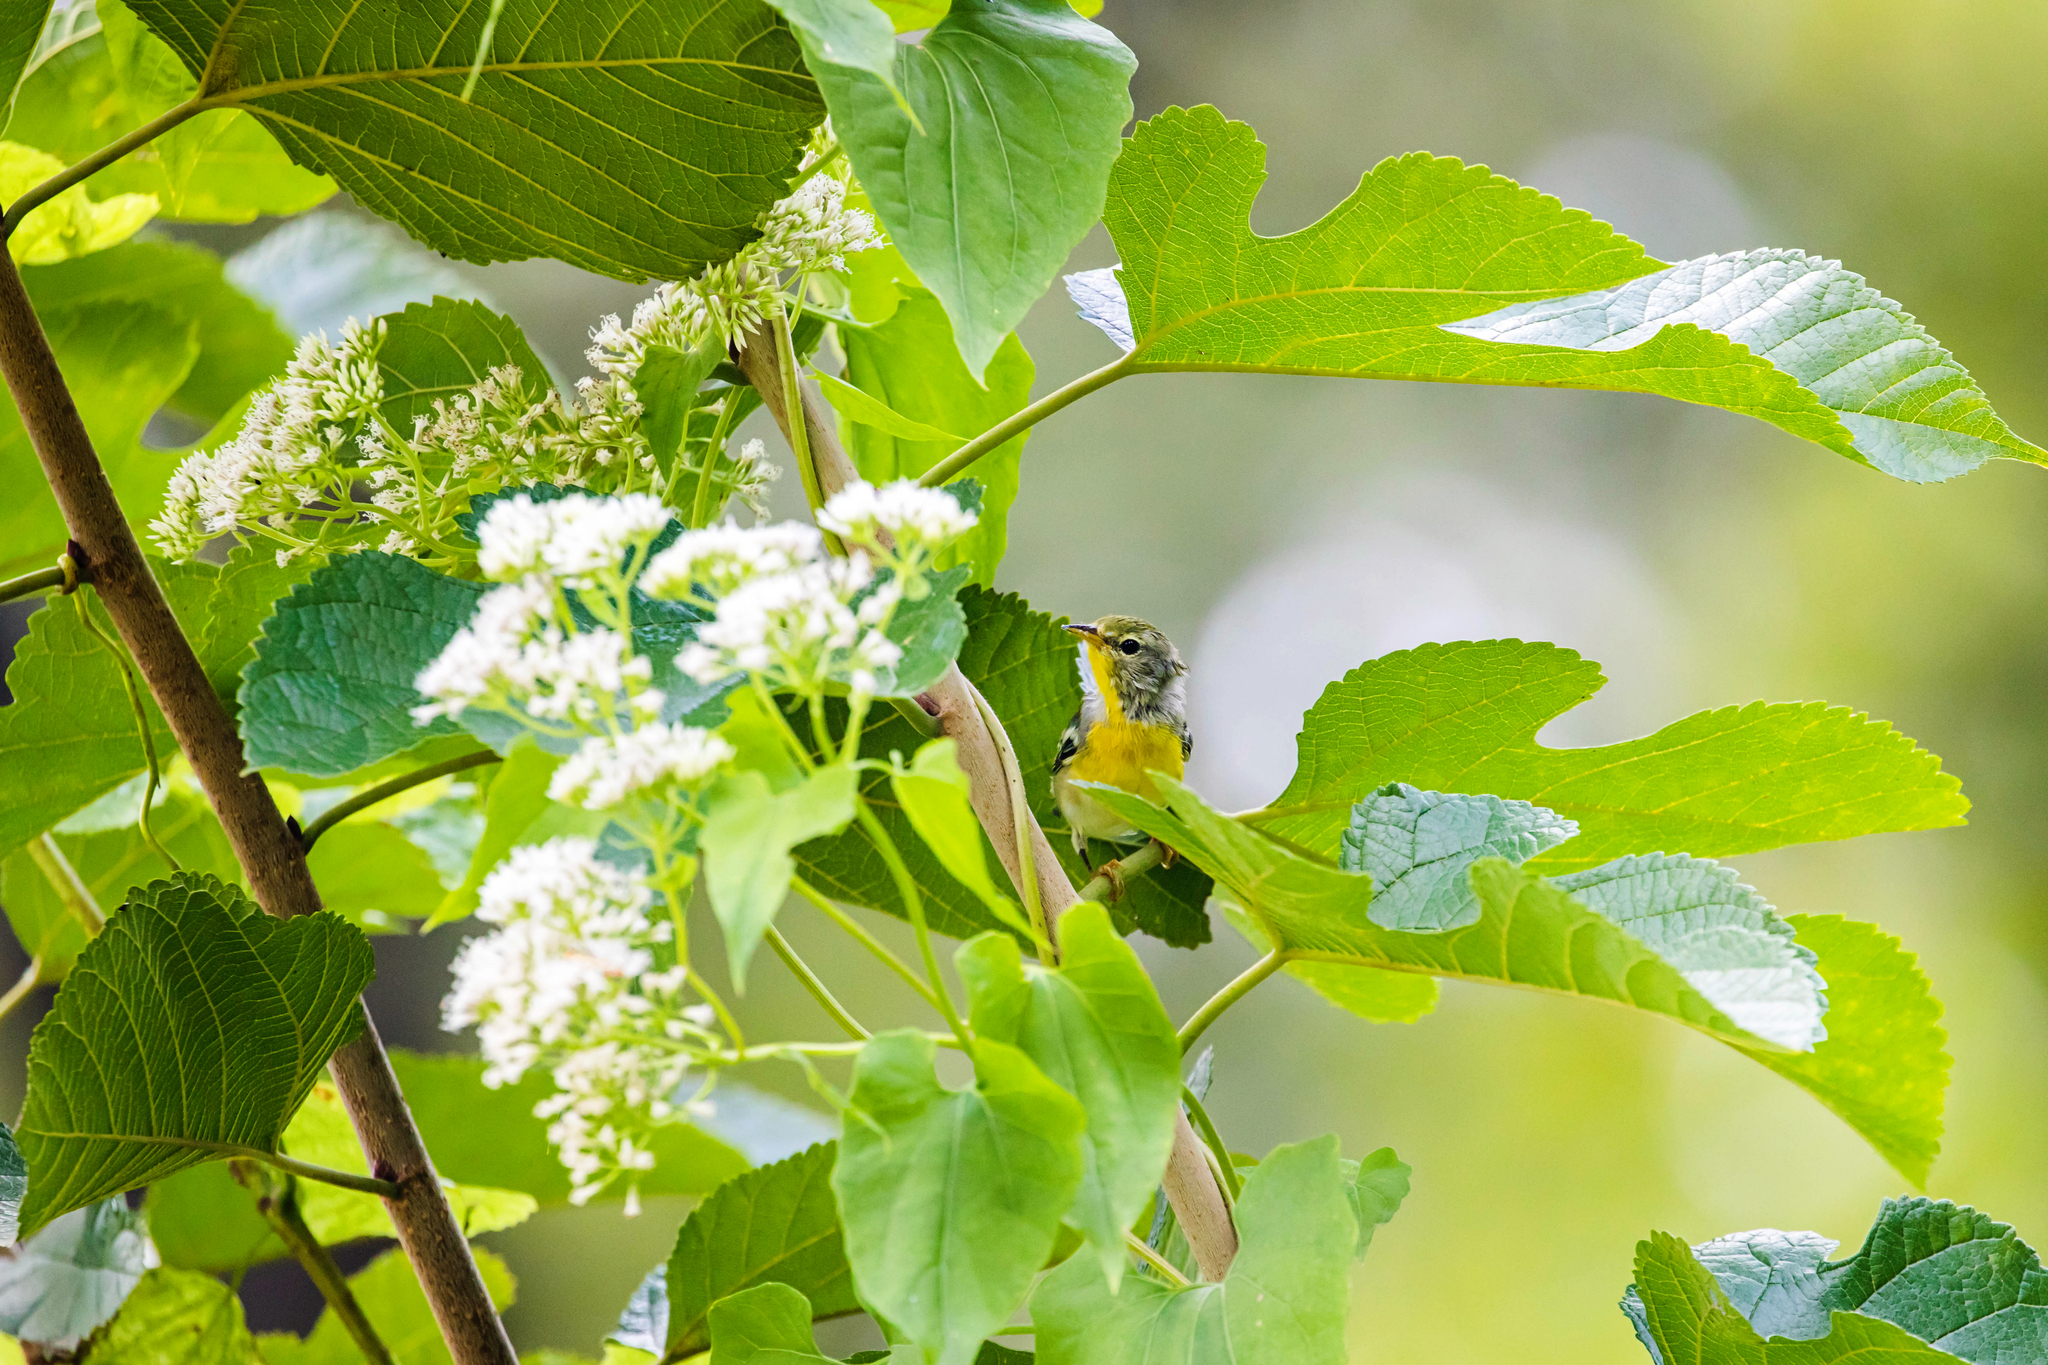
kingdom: Animalia
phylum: Chordata
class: Aves
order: Passeriformes
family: Parulidae
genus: Setophaga
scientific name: Setophaga americana
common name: Northern parula
